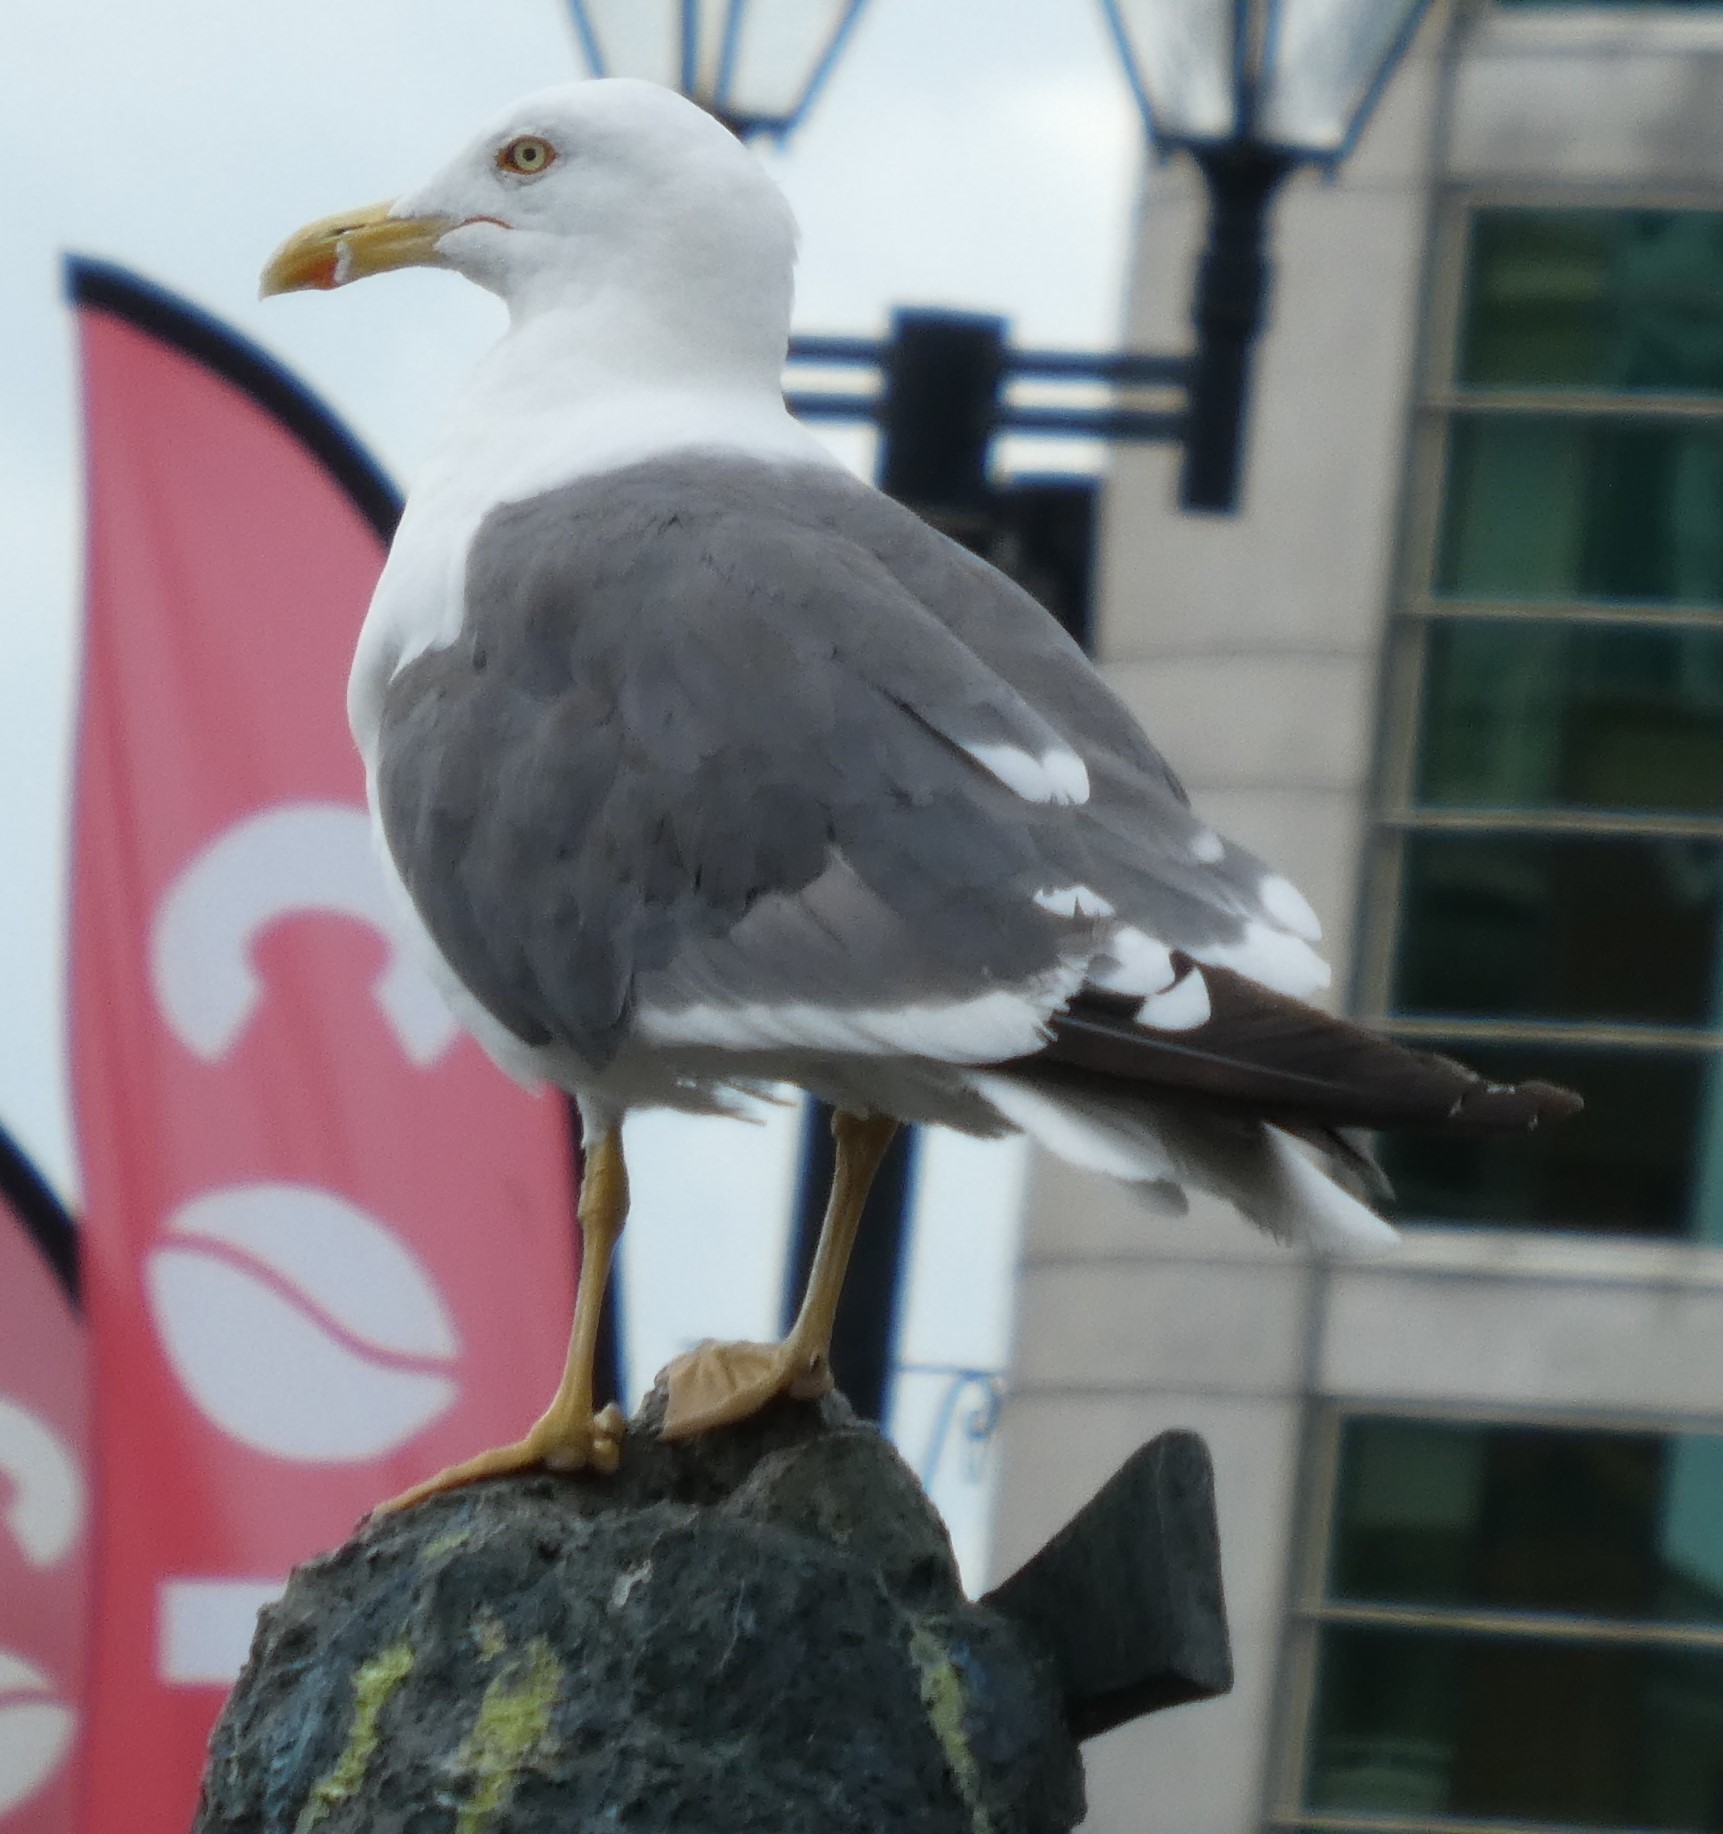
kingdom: Animalia
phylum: Chordata
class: Aves
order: Charadriiformes
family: Laridae
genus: Larus
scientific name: Larus fuscus
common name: Lesser black-backed gull
